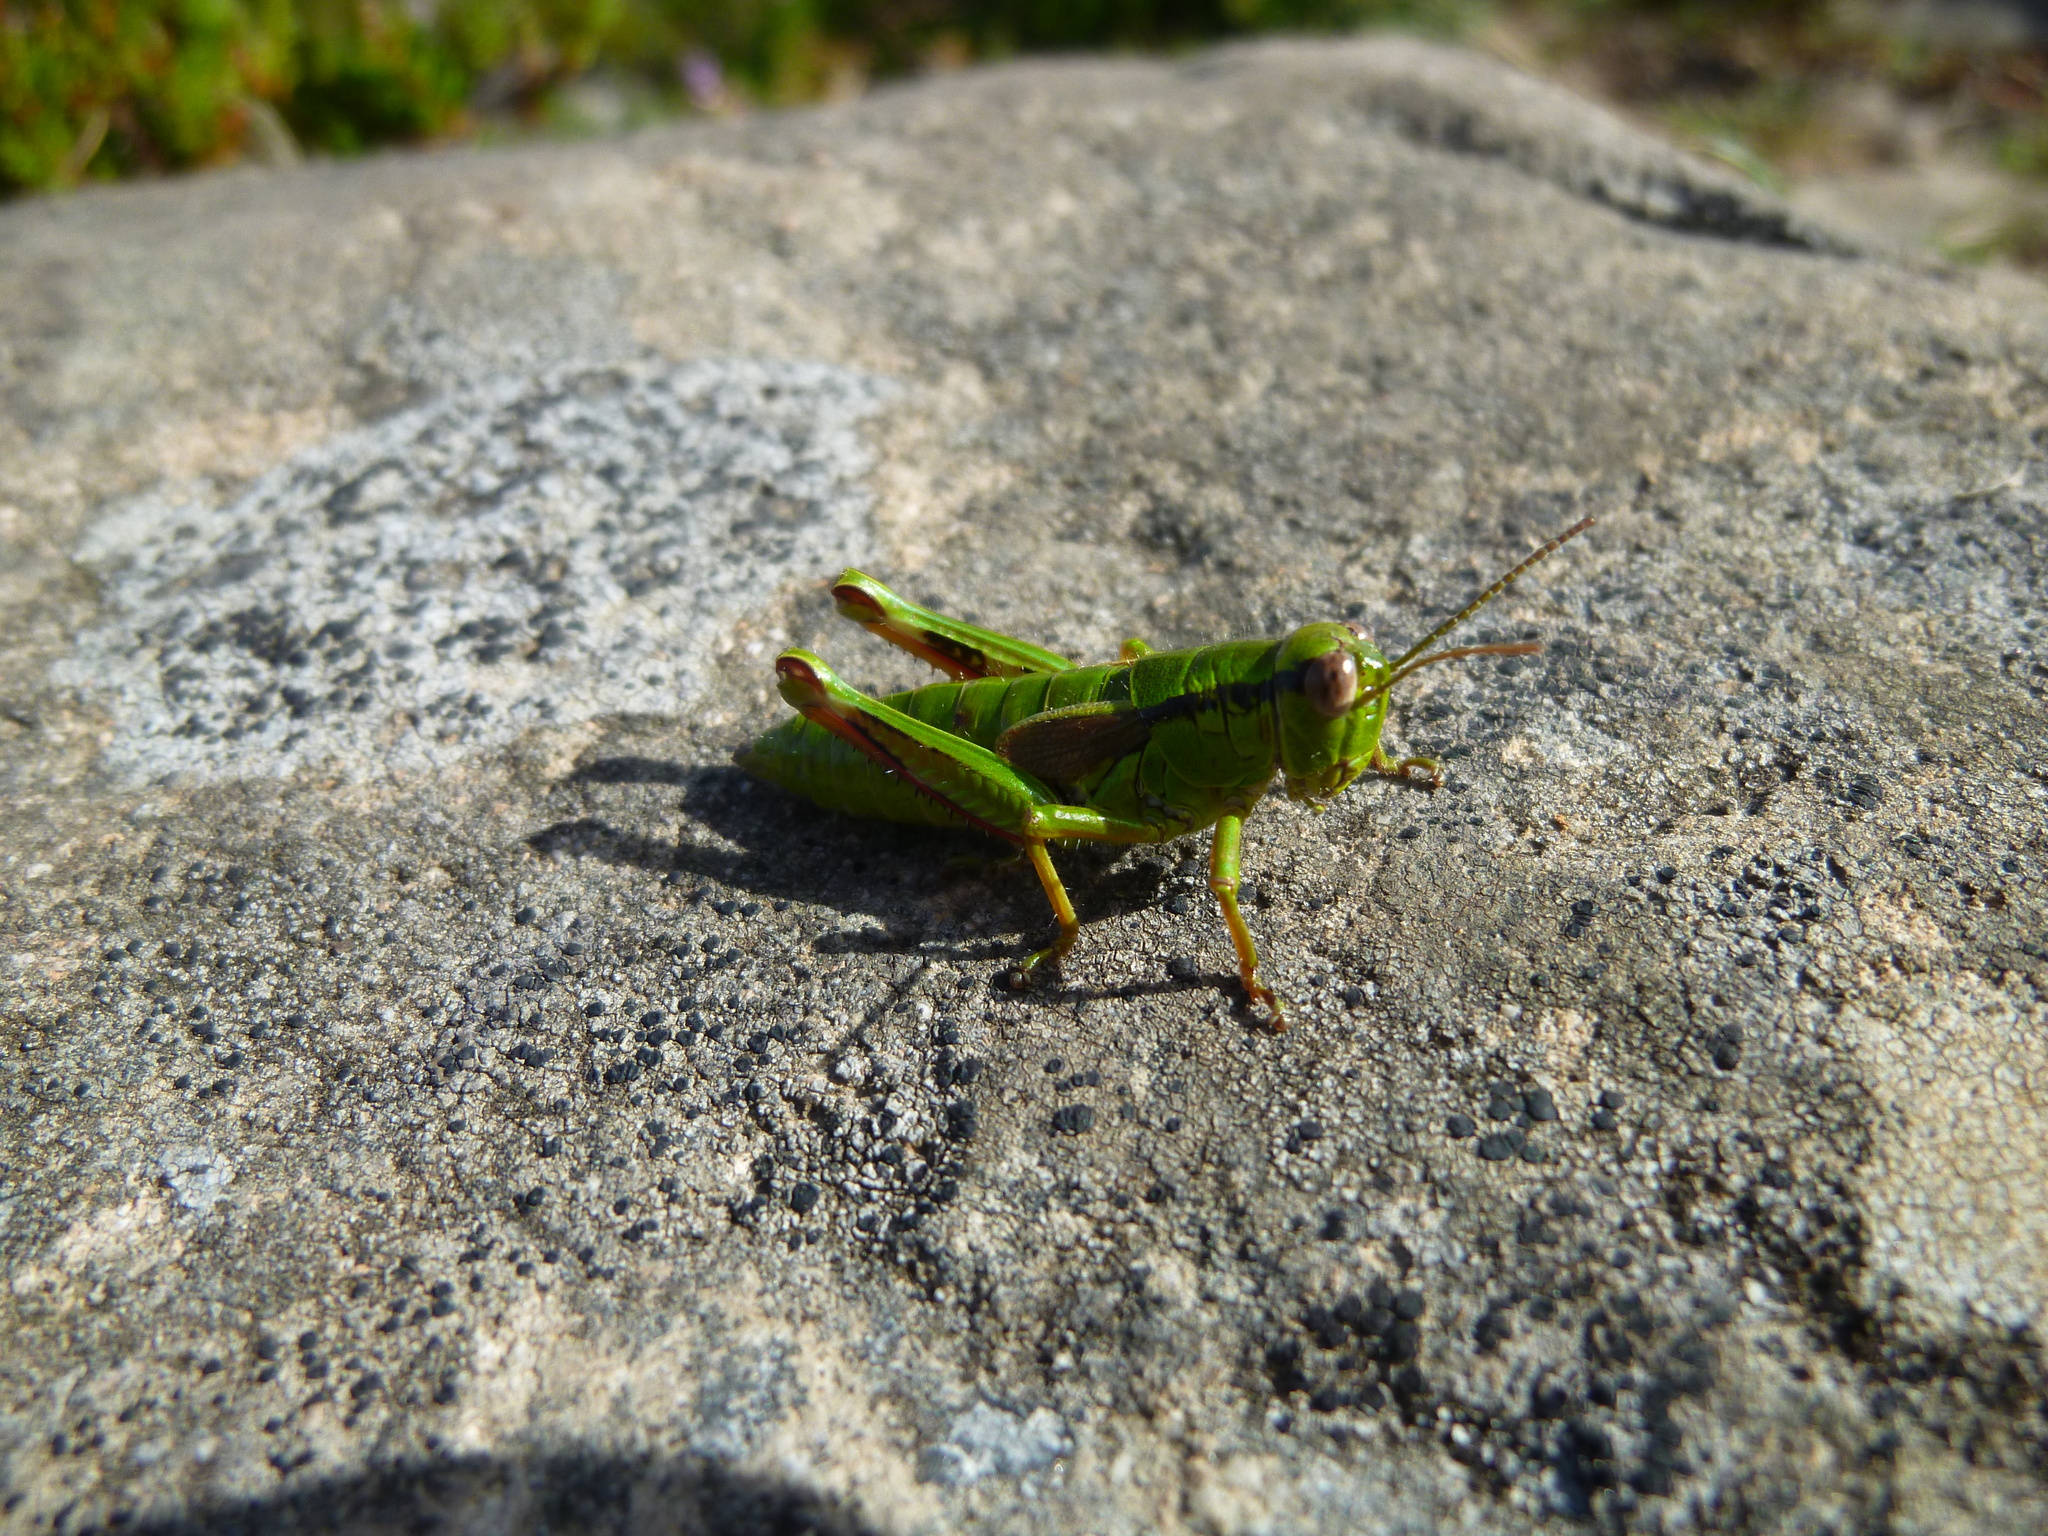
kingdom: Animalia
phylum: Arthropoda
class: Insecta
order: Orthoptera
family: Acrididae
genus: Miramella
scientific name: Miramella alpina
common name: Green mountain grasshopper
